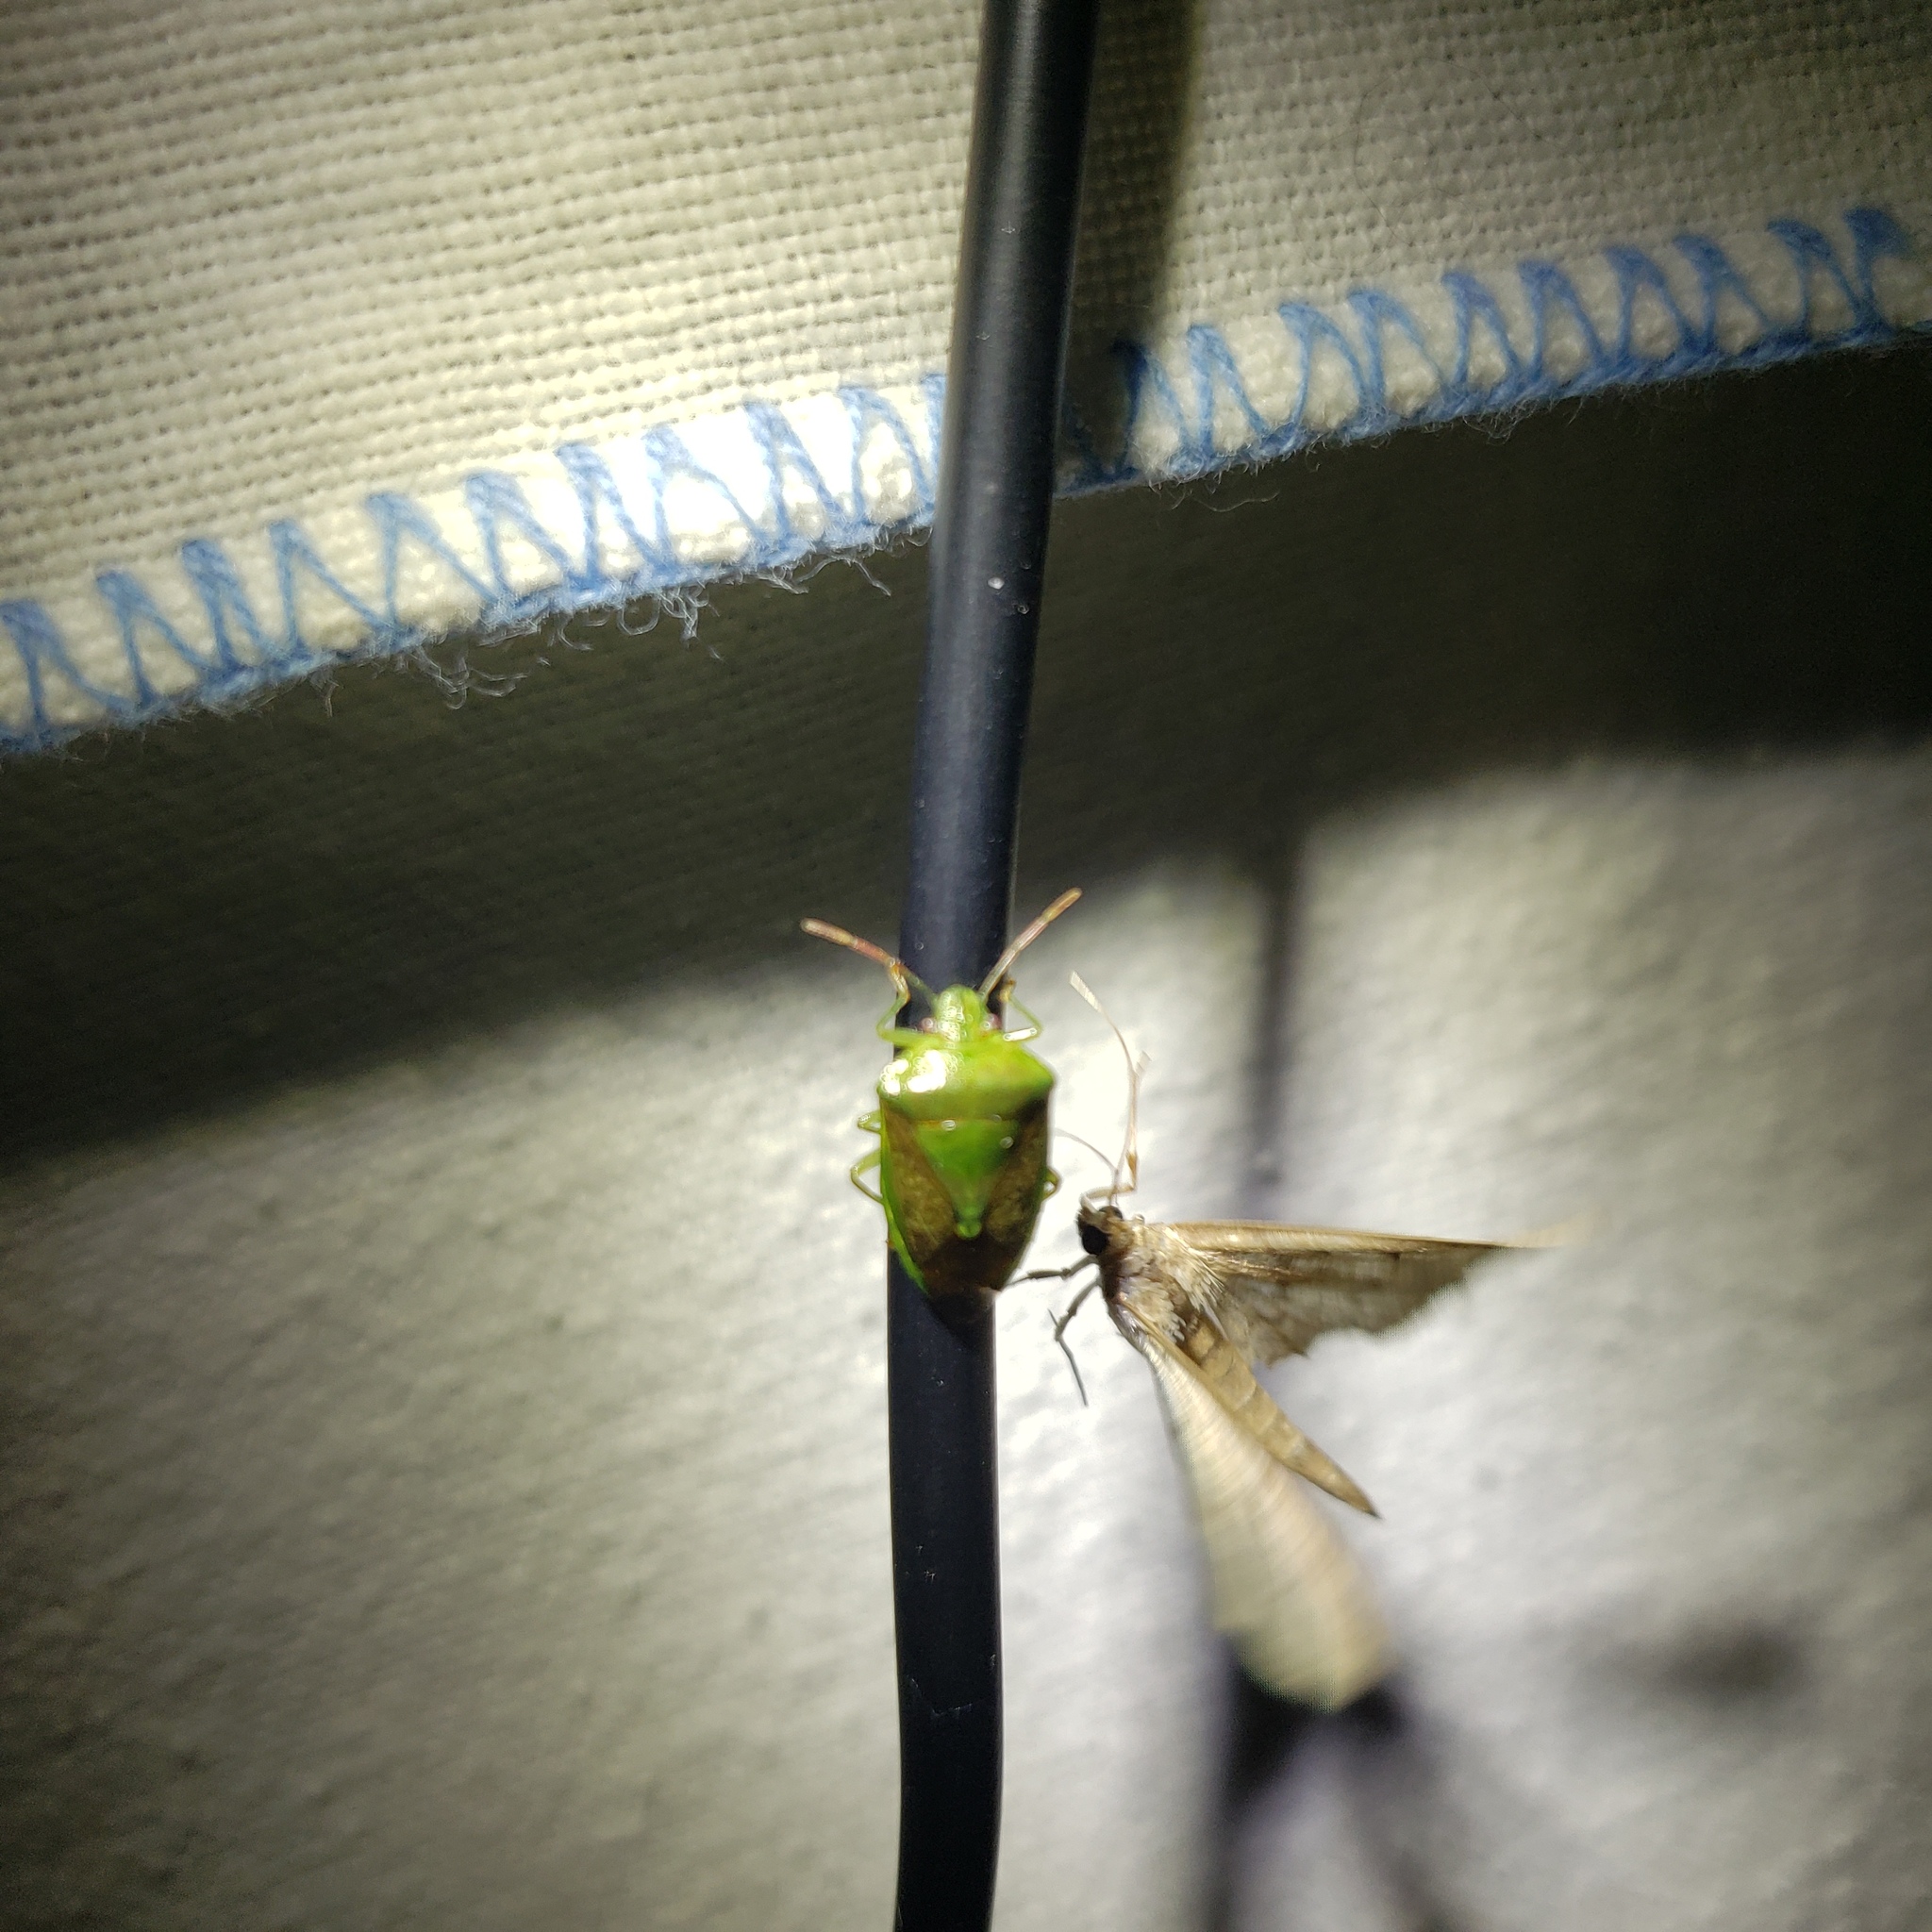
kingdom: Animalia
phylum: Arthropoda
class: Insecta
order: Hemiptera
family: Pentatomidae
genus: Banasa
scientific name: Banasa dimidiata
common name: Green burgundy stink bug
